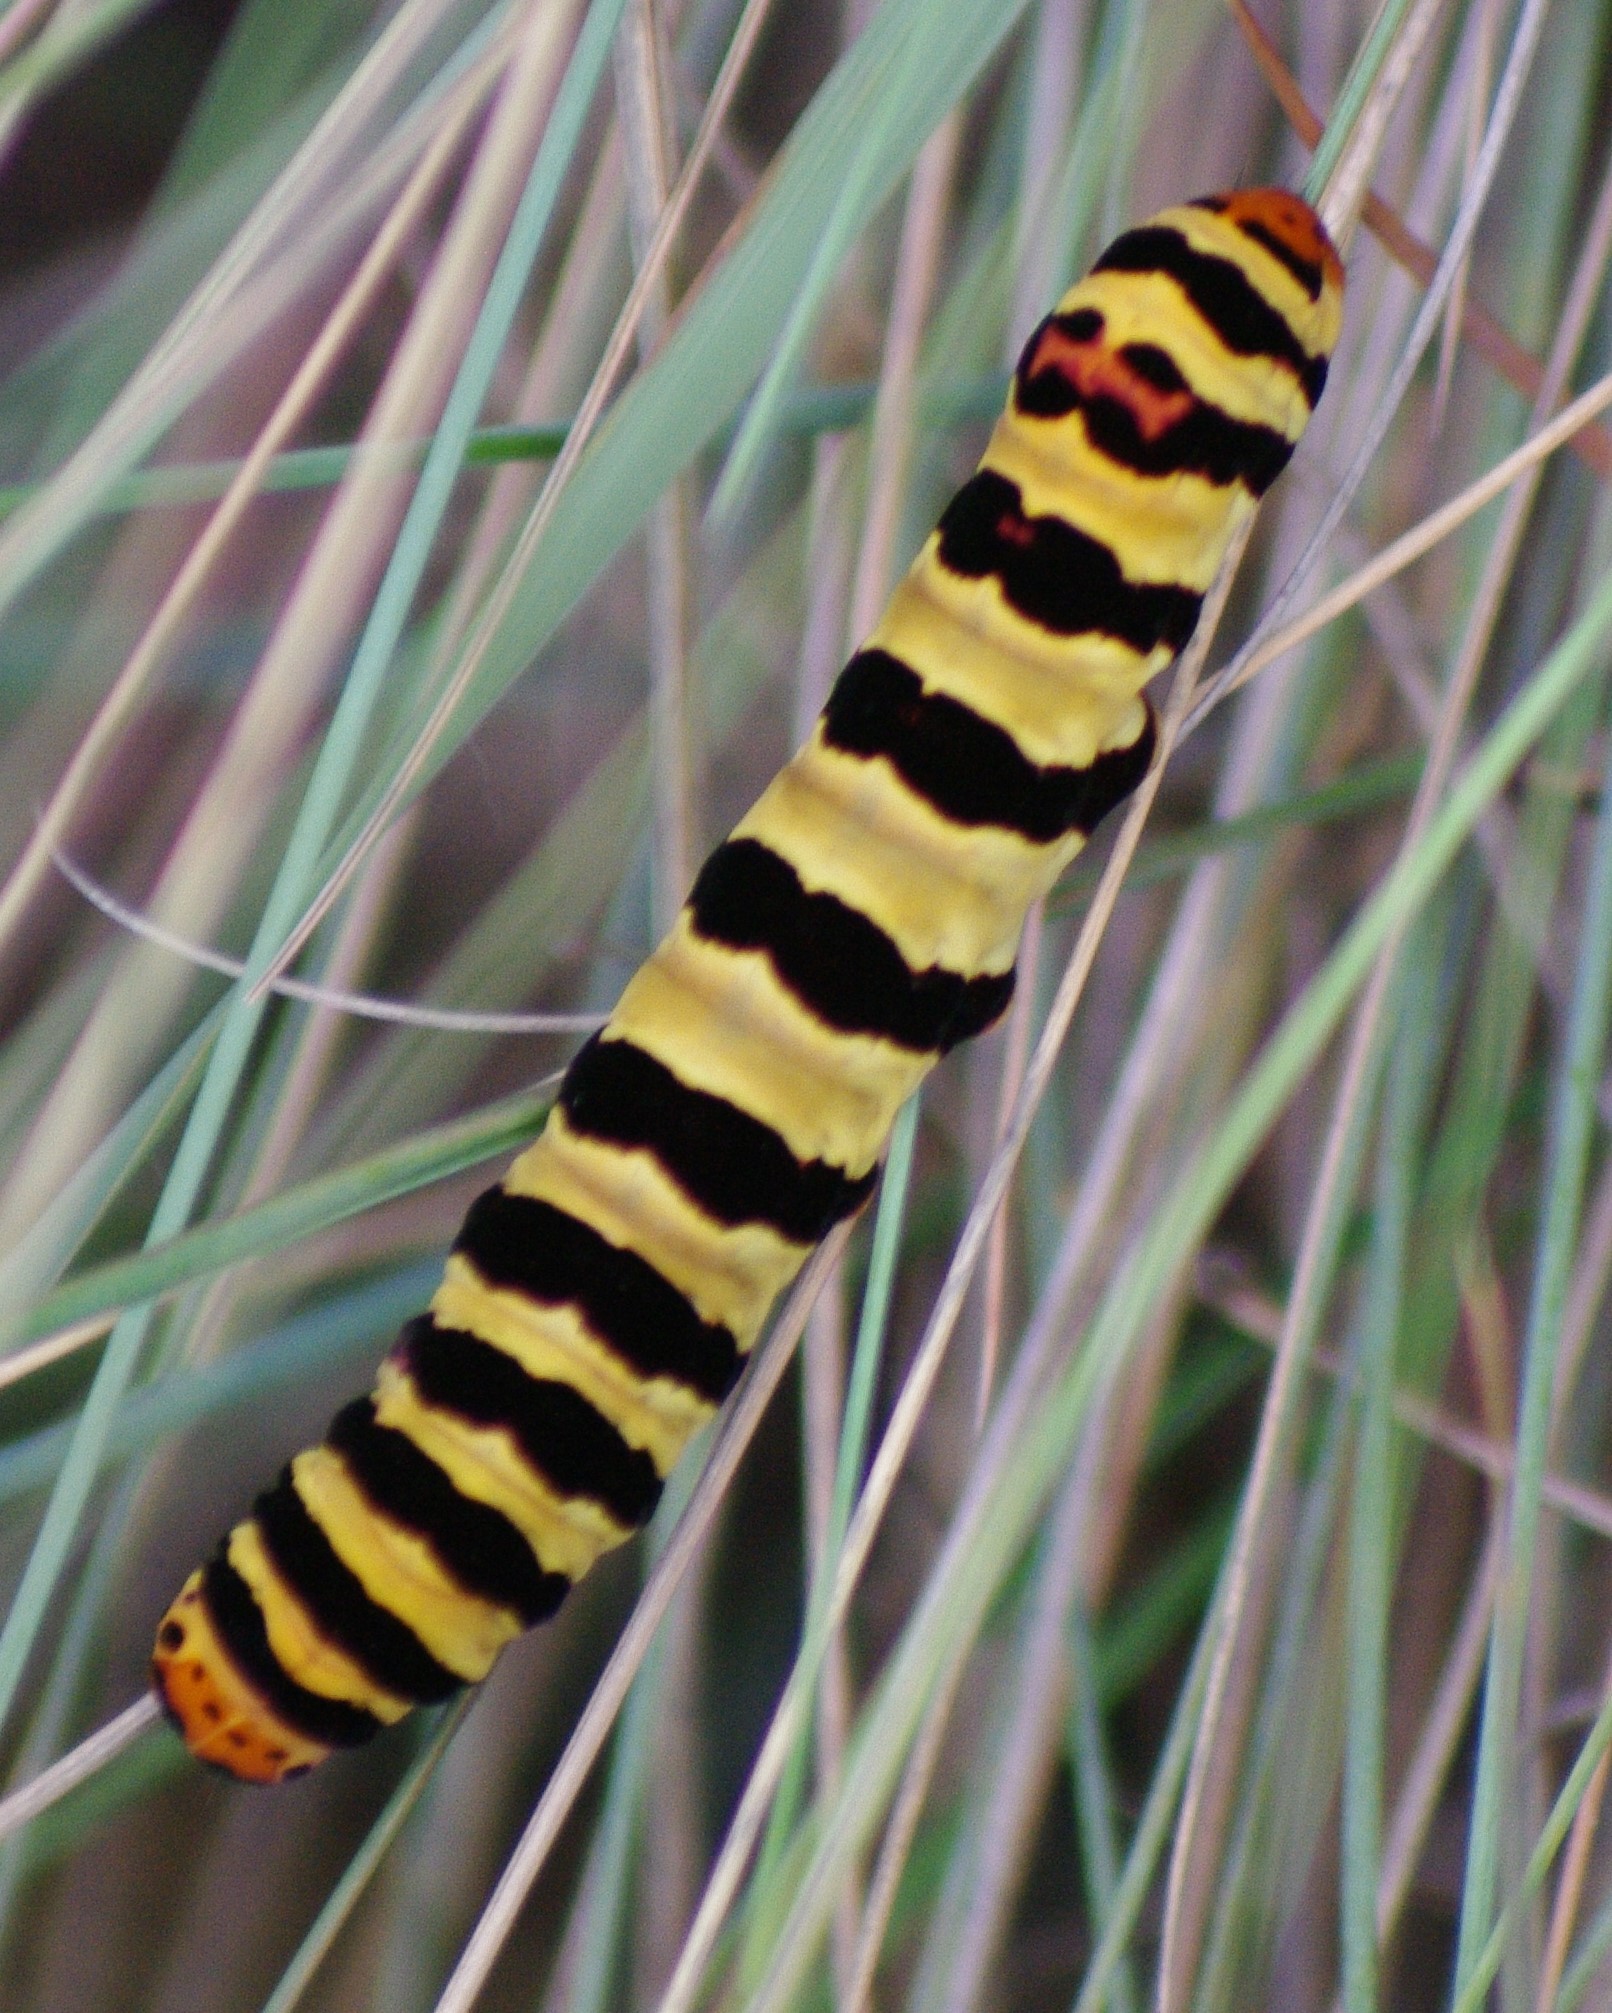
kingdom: Animalia
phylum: Arthropoda
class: Insecta
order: Lepidoptera
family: Noctuidae
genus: Diaphone
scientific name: Diaphone eumela
